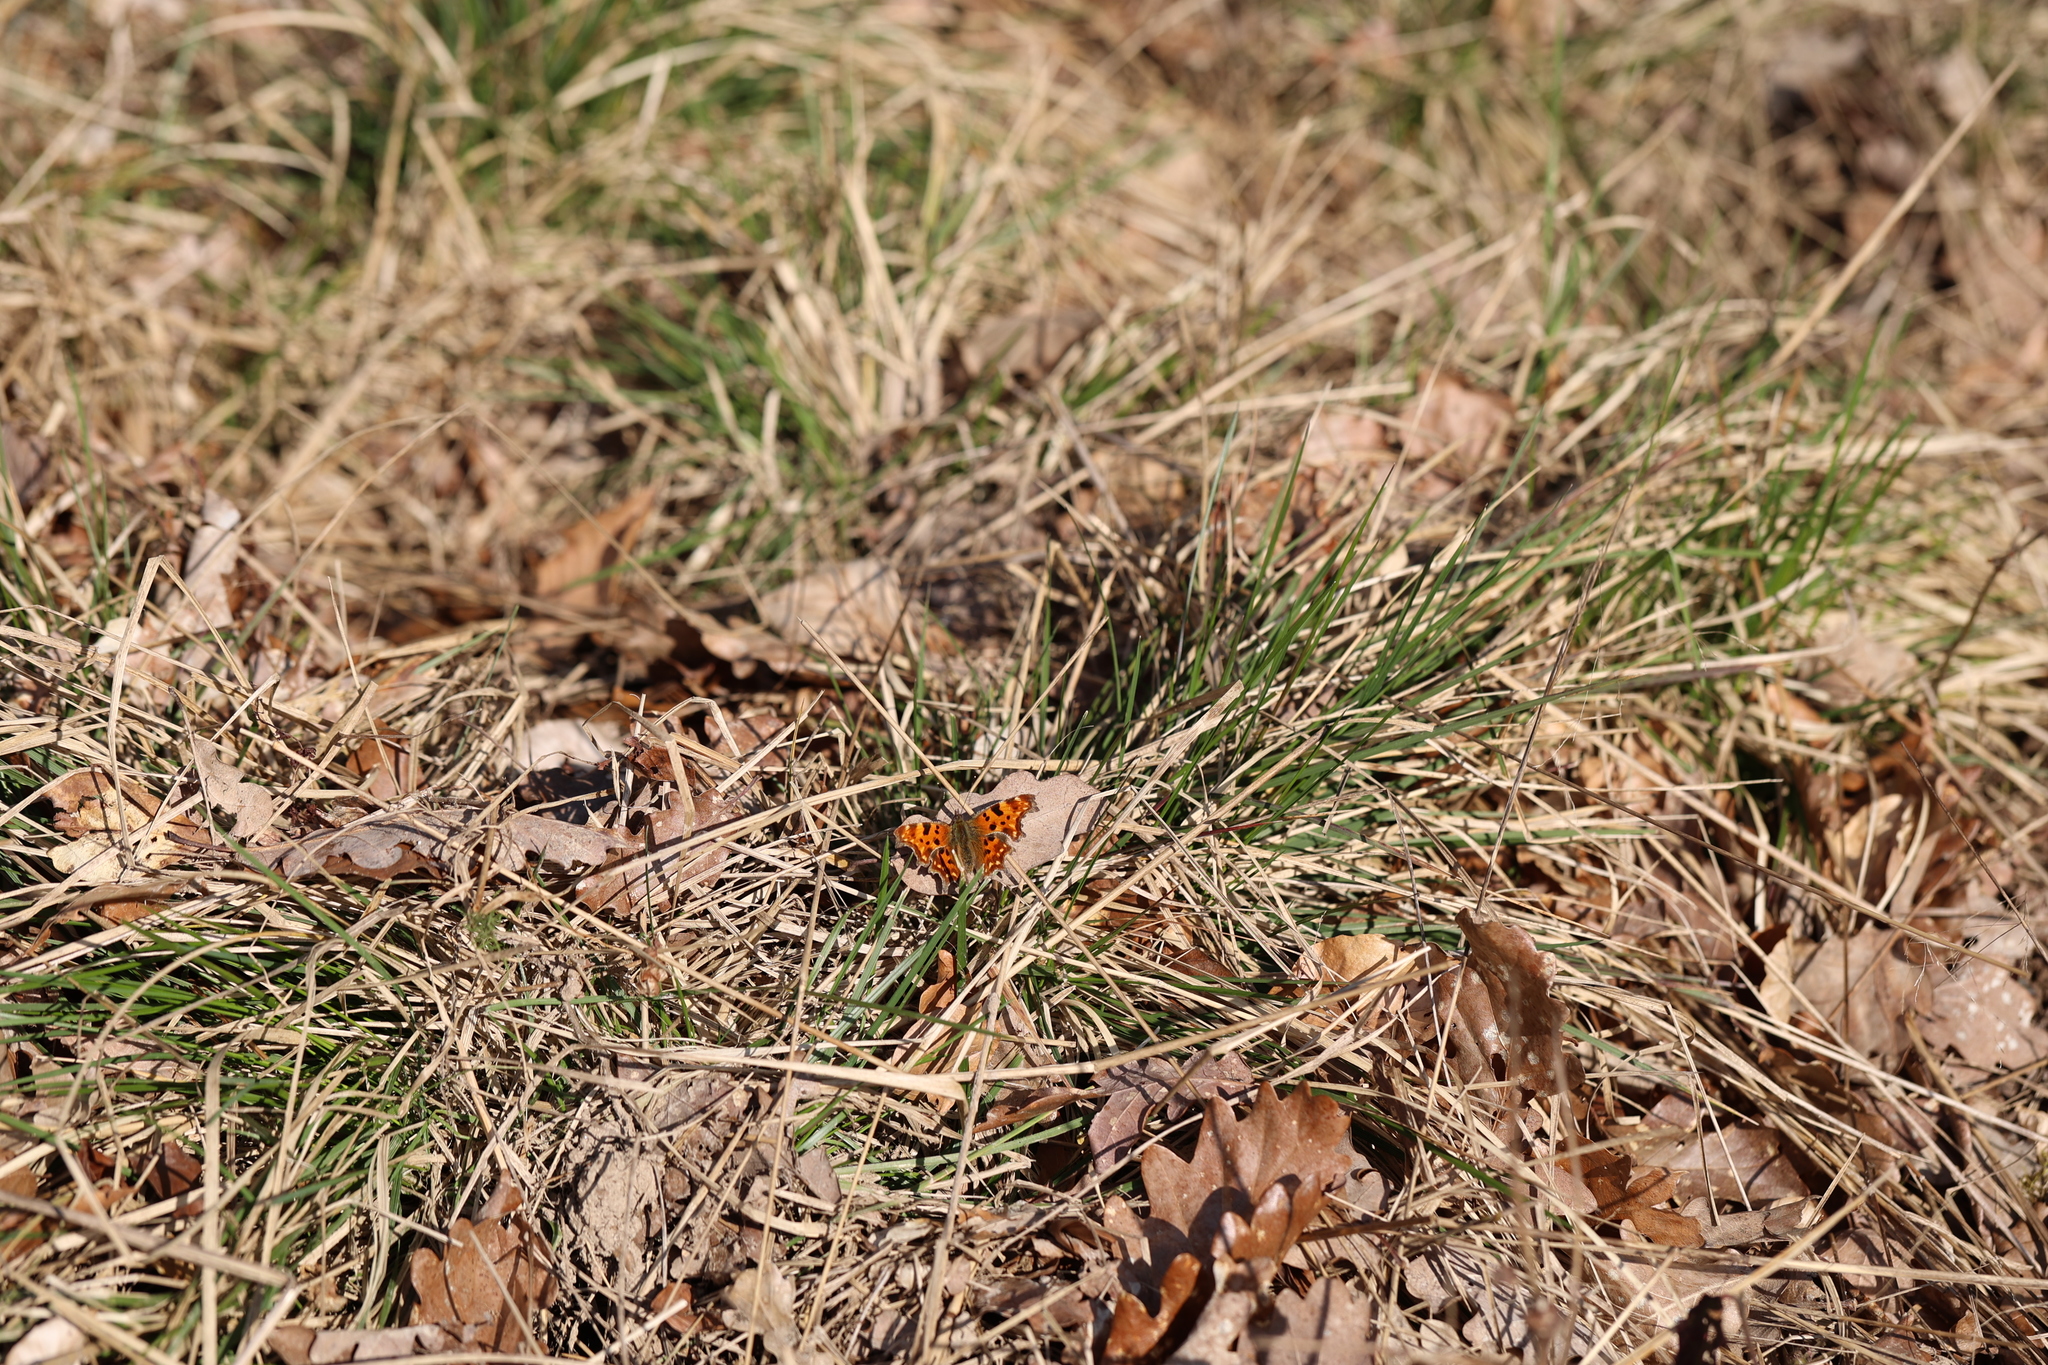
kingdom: Animalia
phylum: Arthropoda
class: Insecta
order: Lepidoptera
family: Nymphalidae
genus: Polygonia
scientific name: Polygonia c-album
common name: Comma
